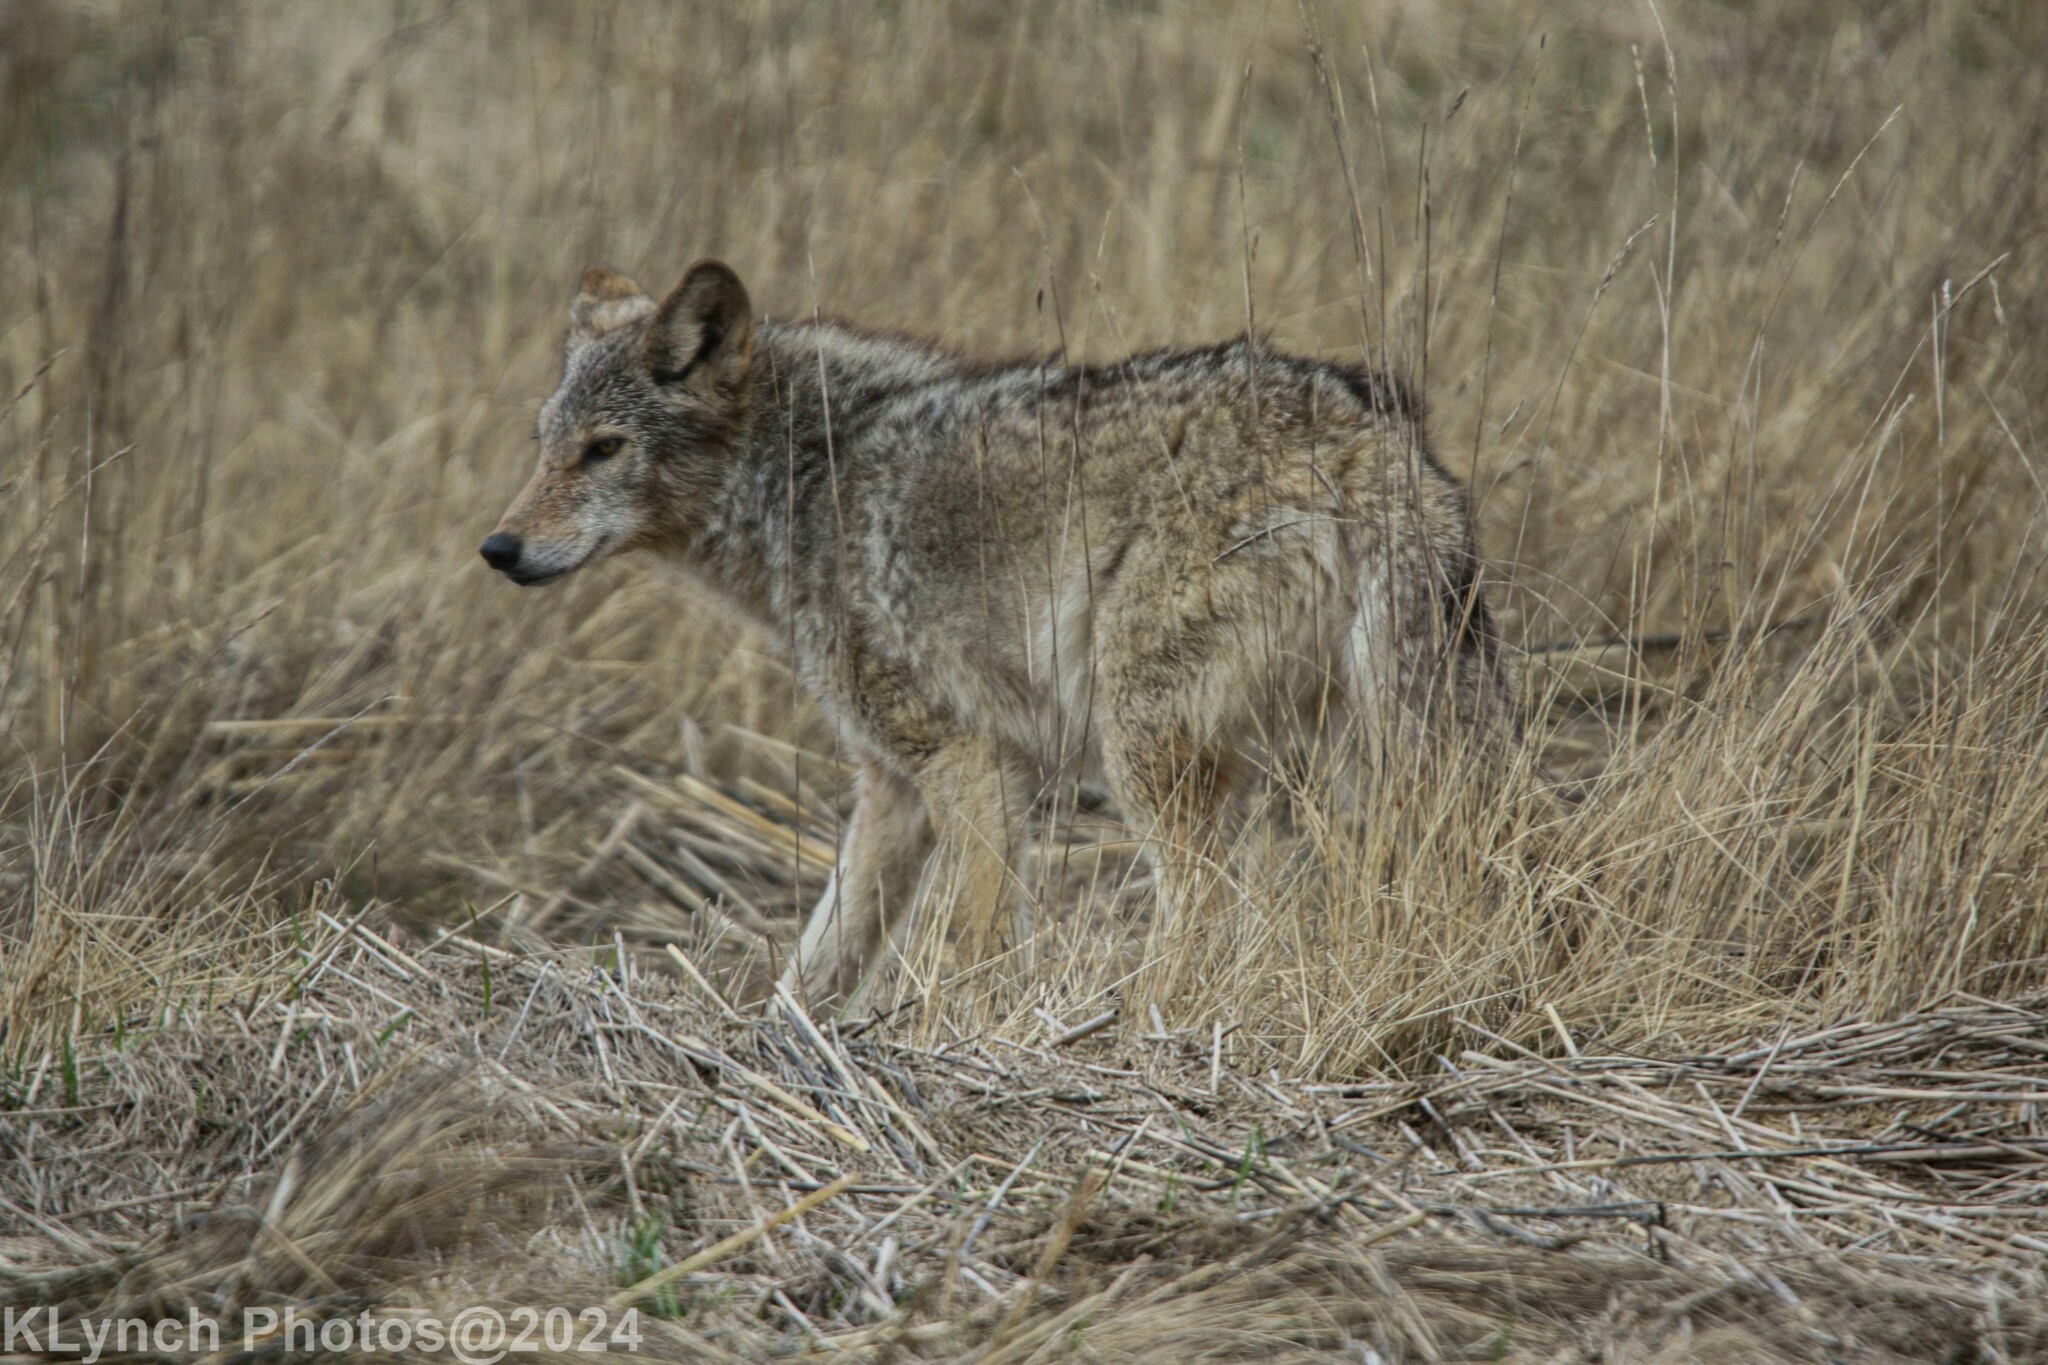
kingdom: Animalia
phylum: Chordata
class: Mammalia
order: Carnivora
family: Canidae
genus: Canis
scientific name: Canis latrans
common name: Coyote
